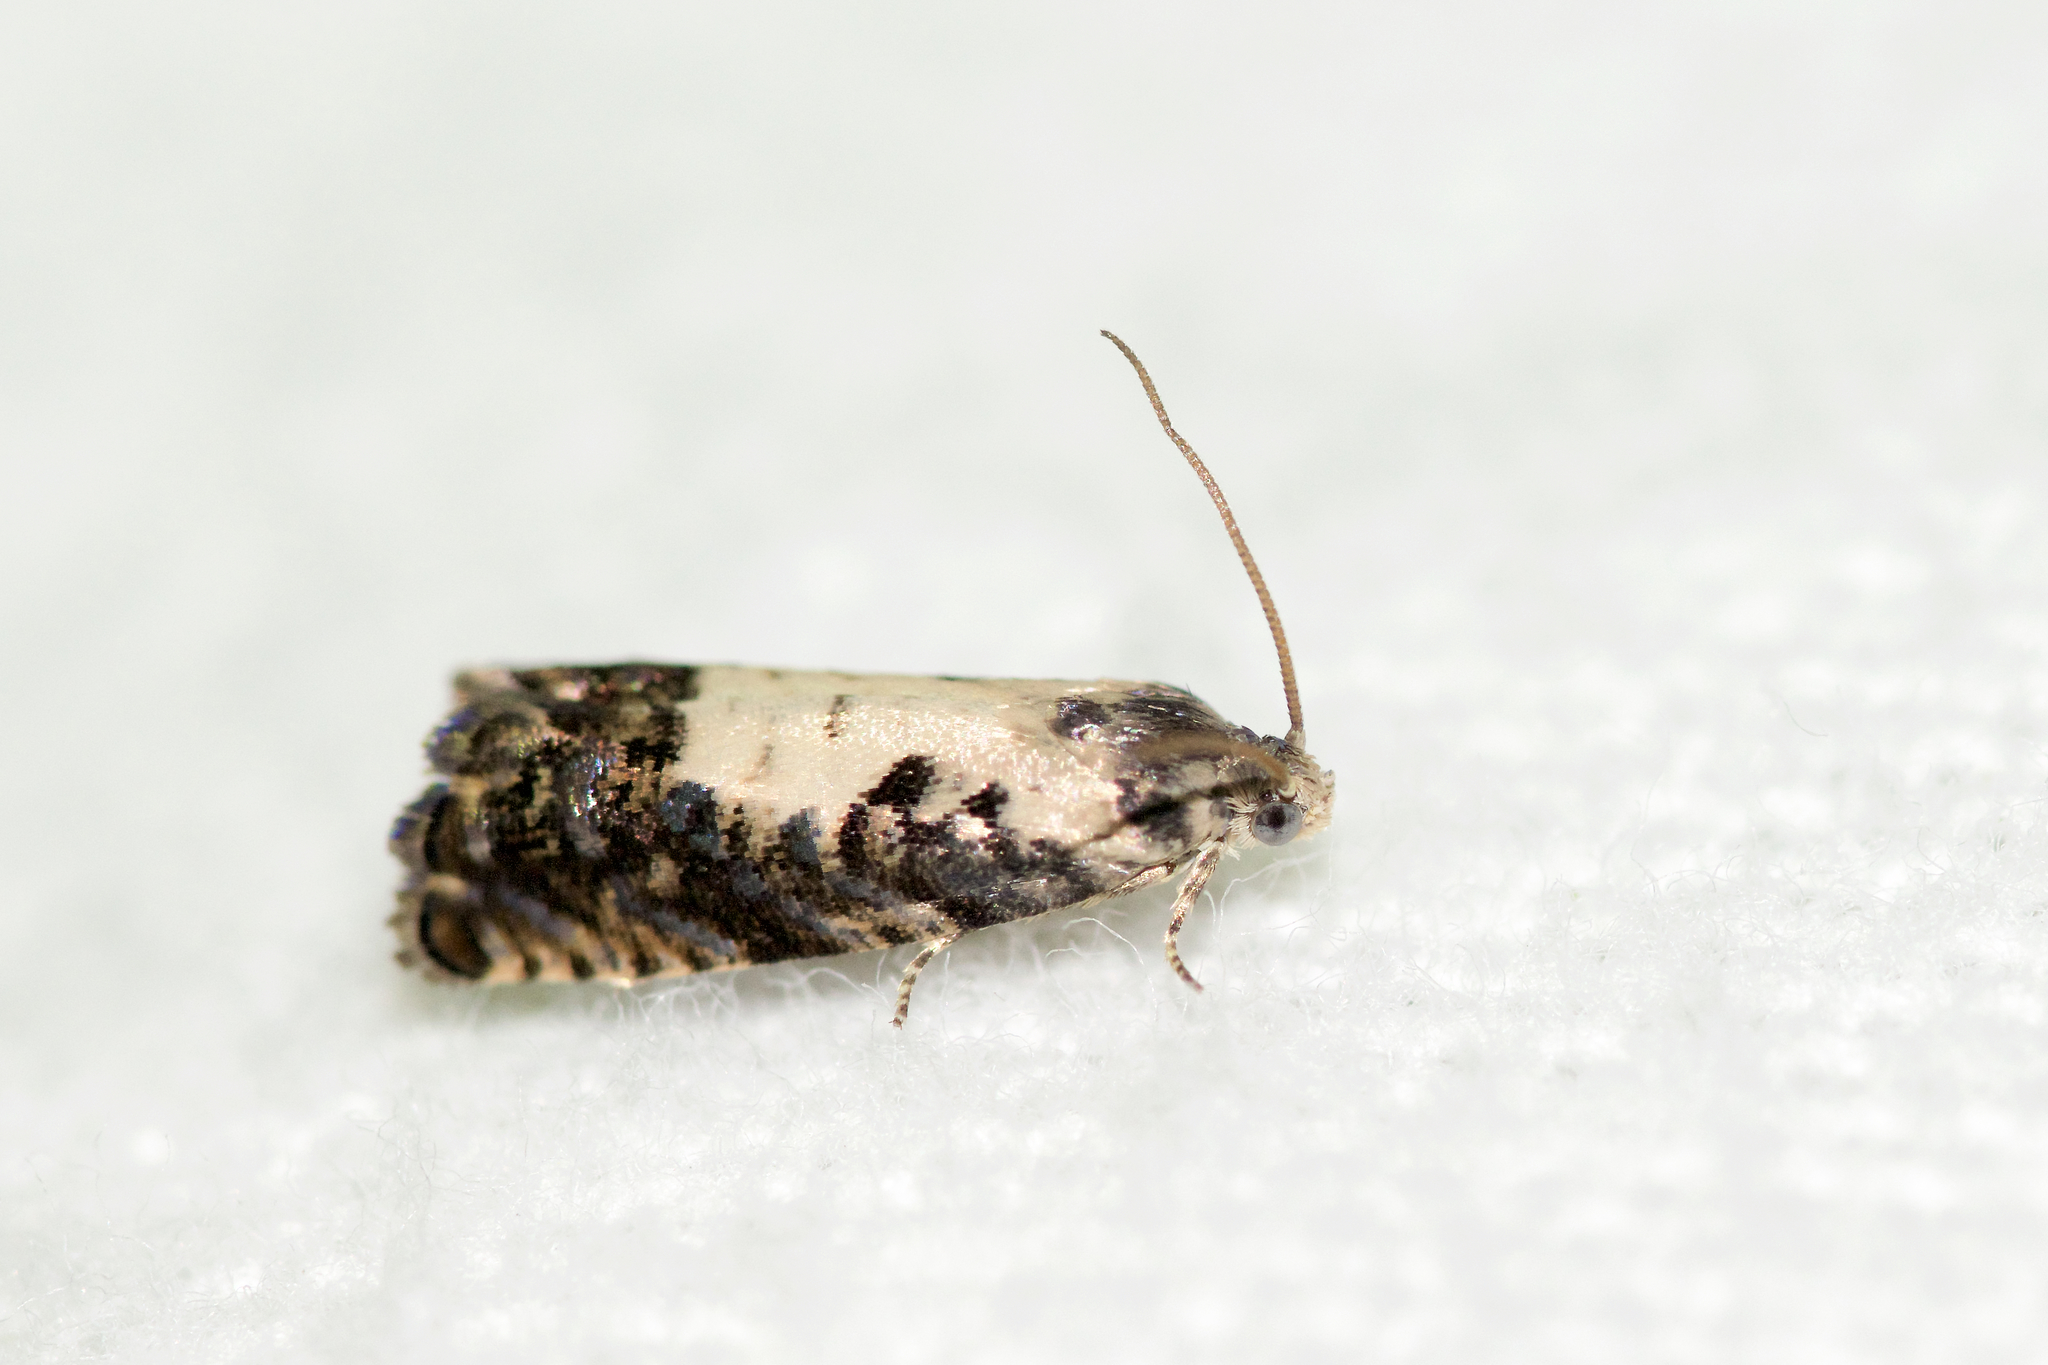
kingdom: Animalia
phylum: Arthropoda
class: Insecta
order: Lepidoptera
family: Tortricidae
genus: Pammene
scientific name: Pammene felicitana
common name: Happy pammene
